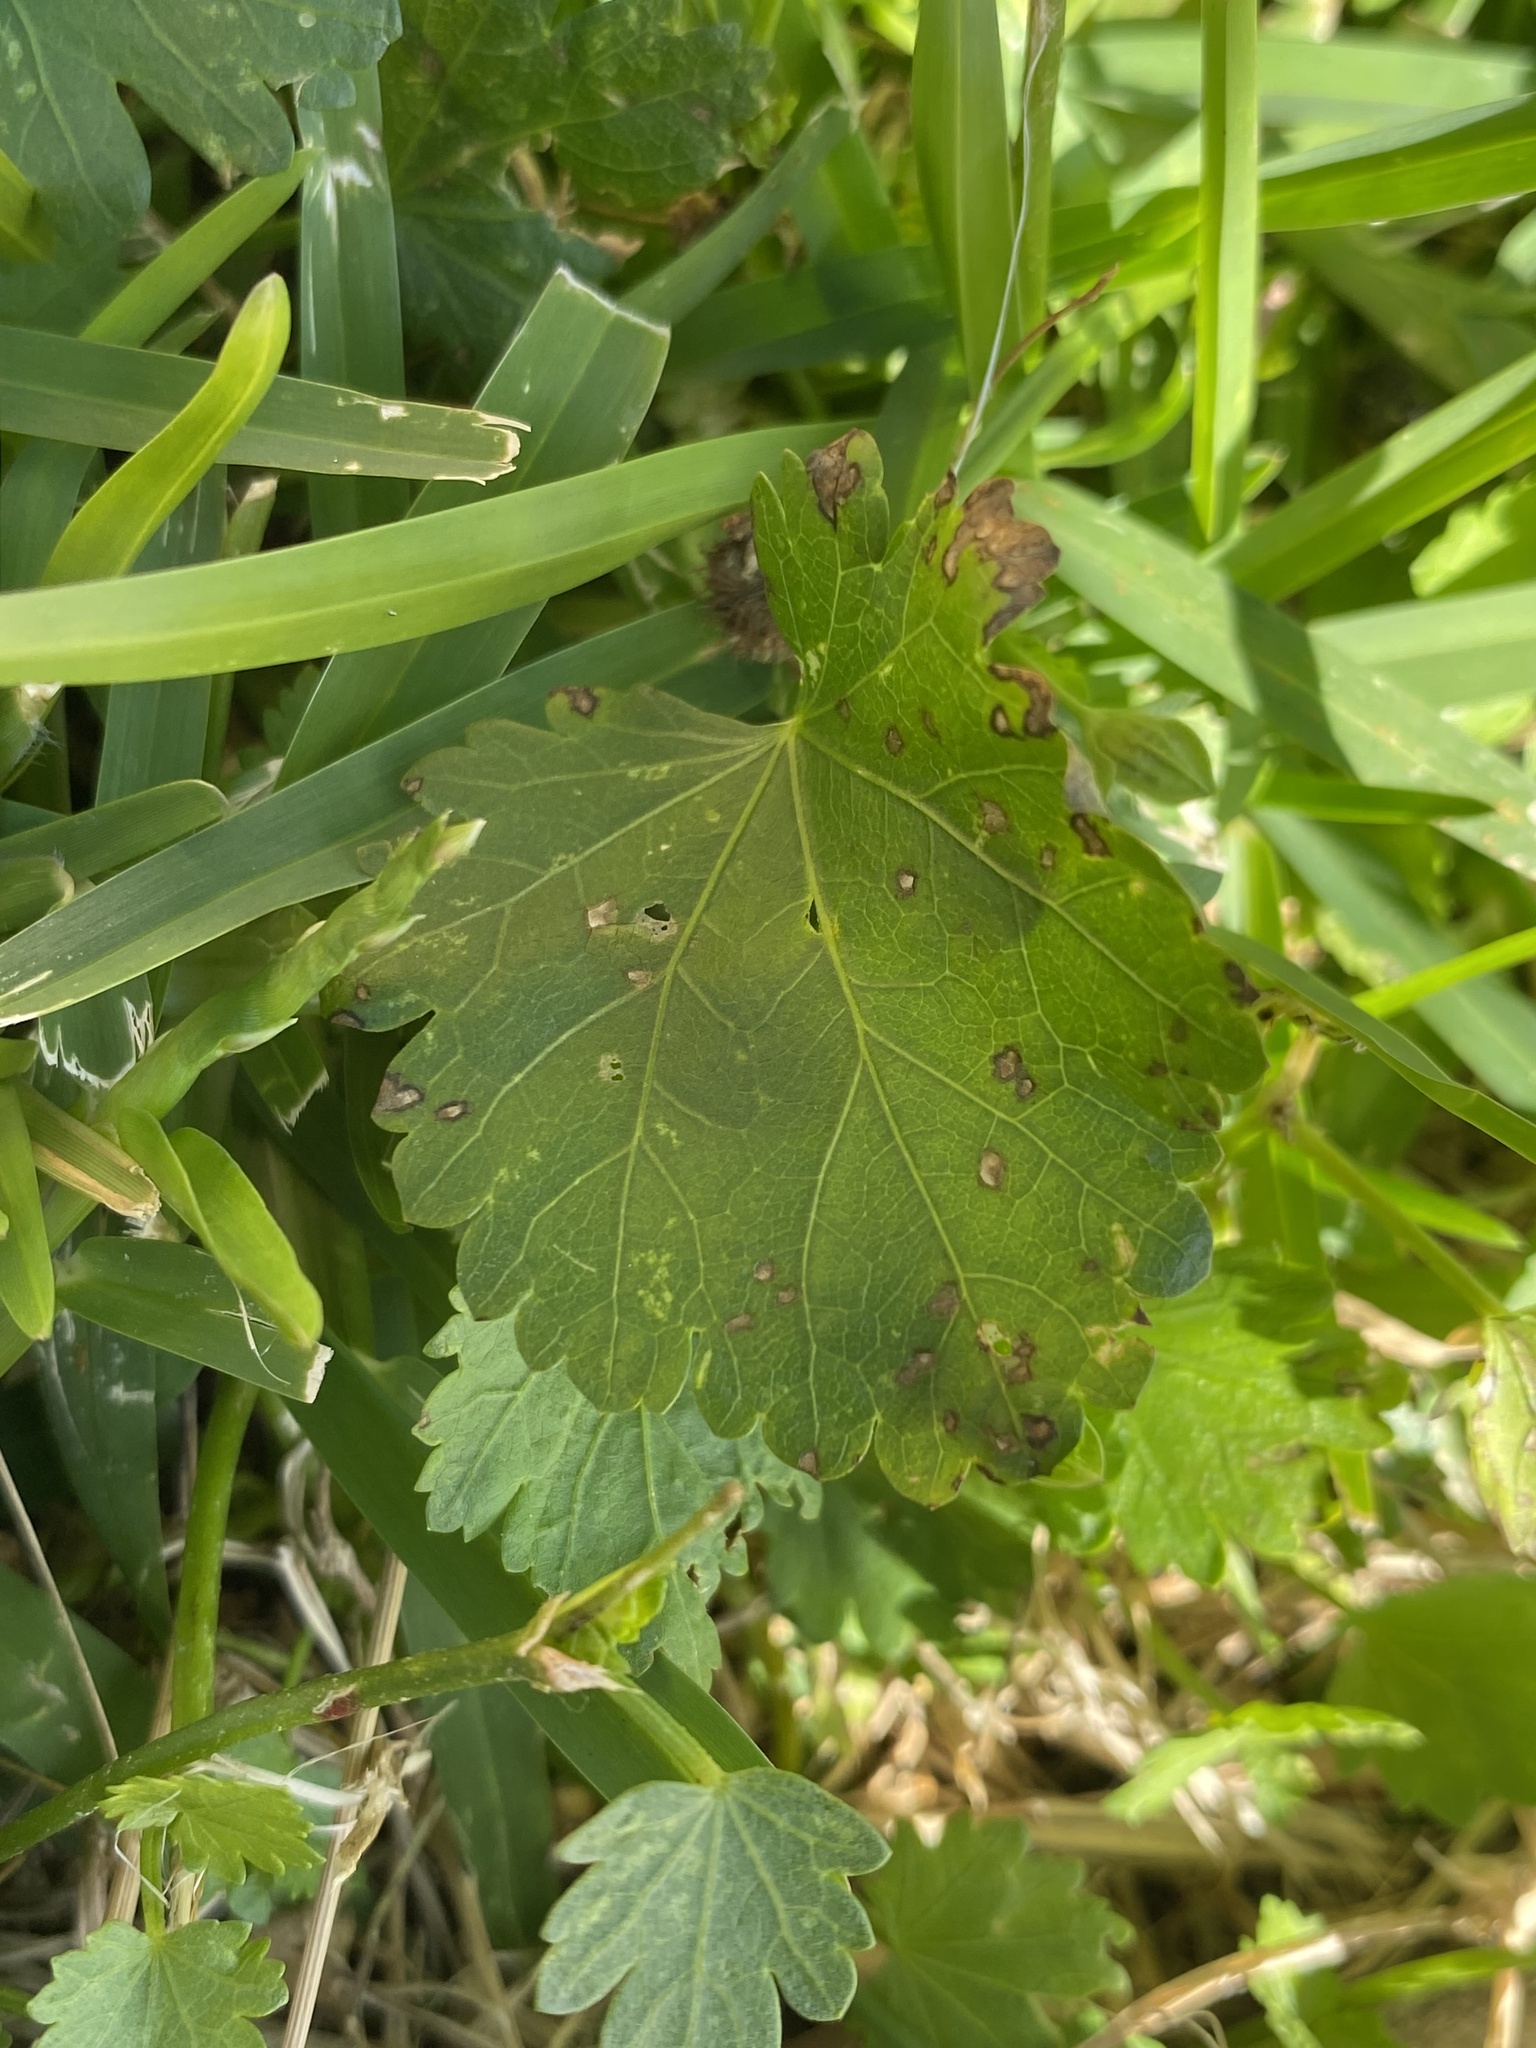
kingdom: Plantae
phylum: Tracheophyta
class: Magnoliopsida
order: Malvales
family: Malvaceae
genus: Modiola
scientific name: Modiola caroliniana
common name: Carolina bristlemallow
